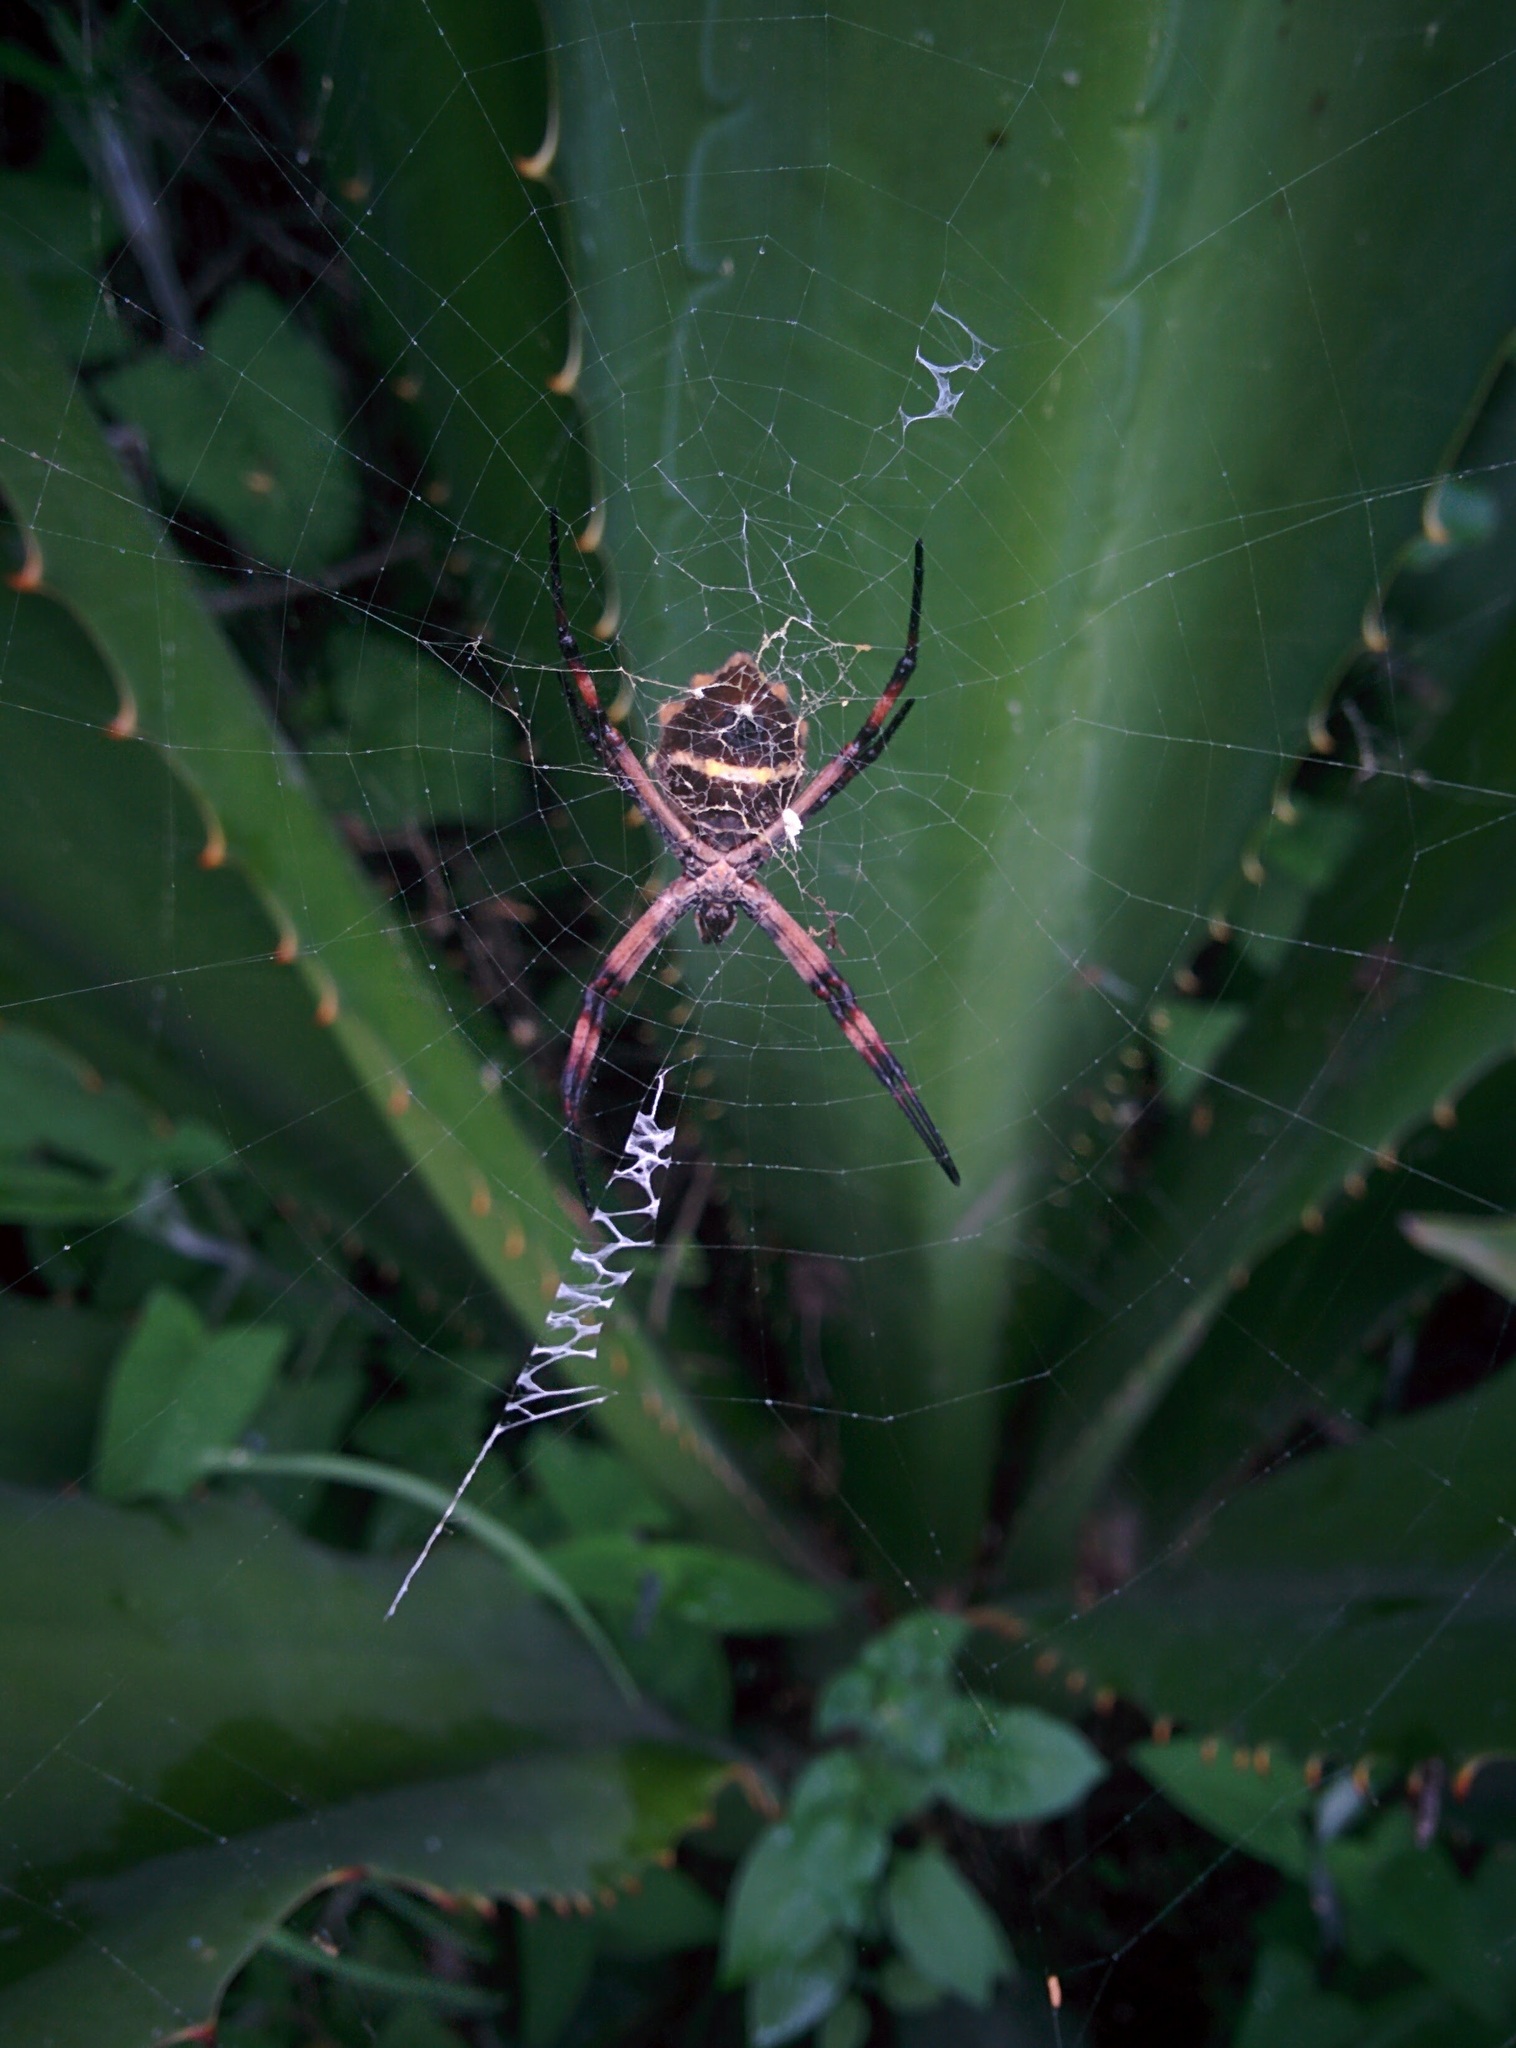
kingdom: Animalia
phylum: Arthropoda
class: Arachnida
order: Araneae
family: Araneidae
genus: Argiope
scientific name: Argiope argentata
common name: Orb weavers
